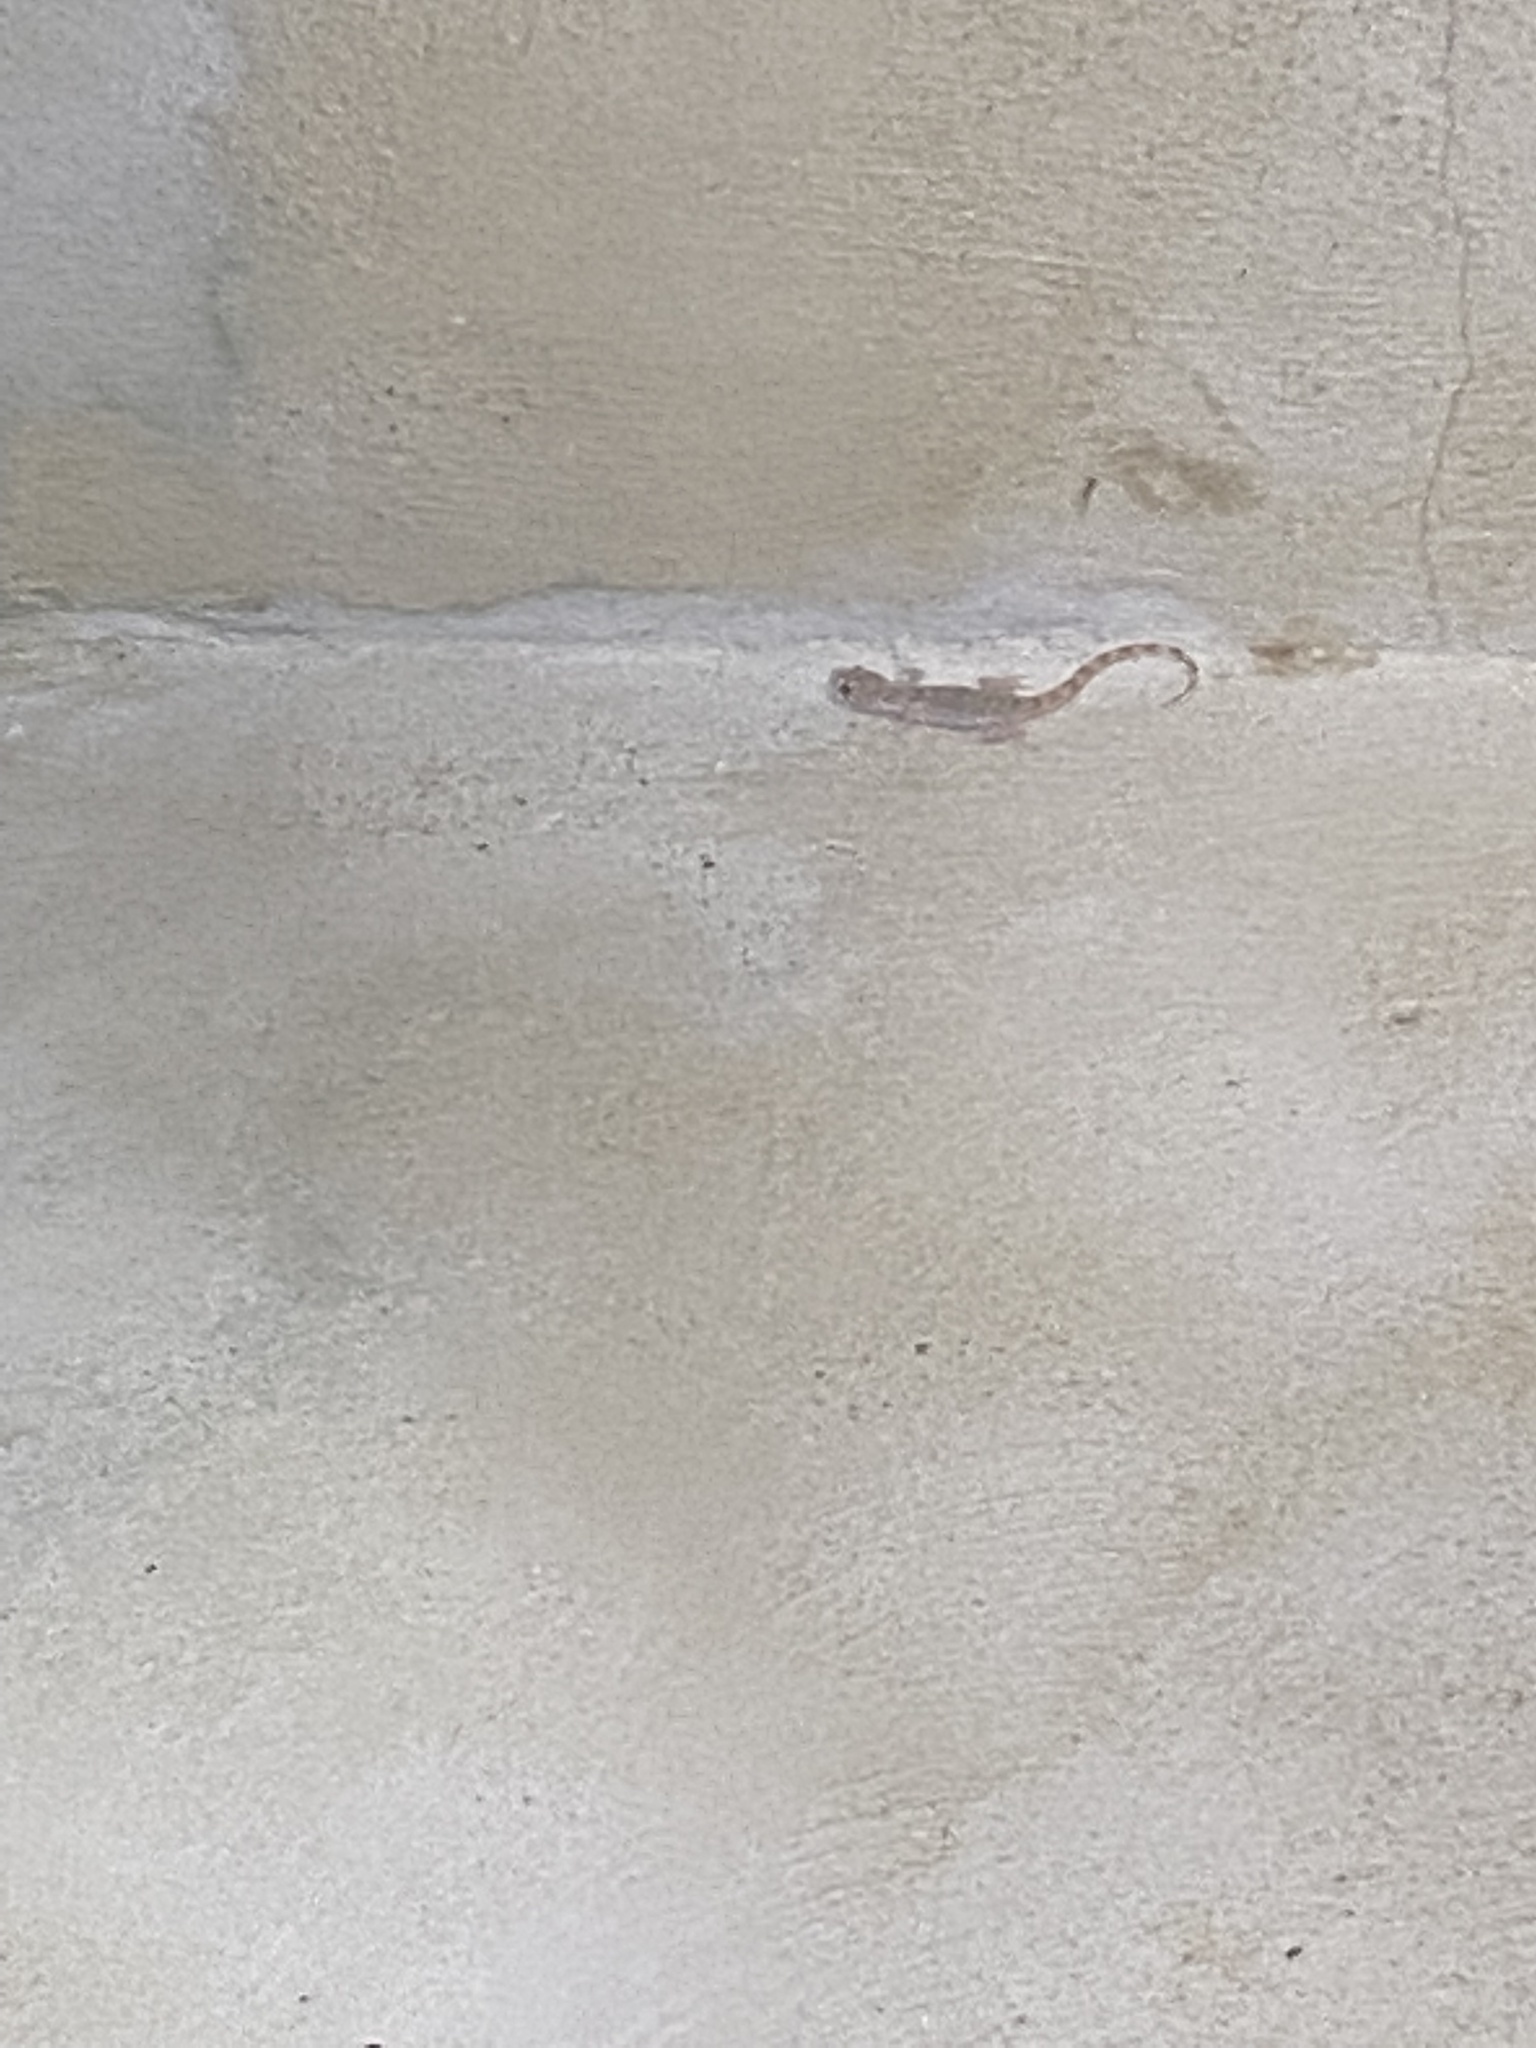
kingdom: Animalia
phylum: Chordata
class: Squamata
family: Gekkonidae
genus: Cyrtopodion
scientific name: Cyrtopodion scabrum
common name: Rough-tailed gecko
